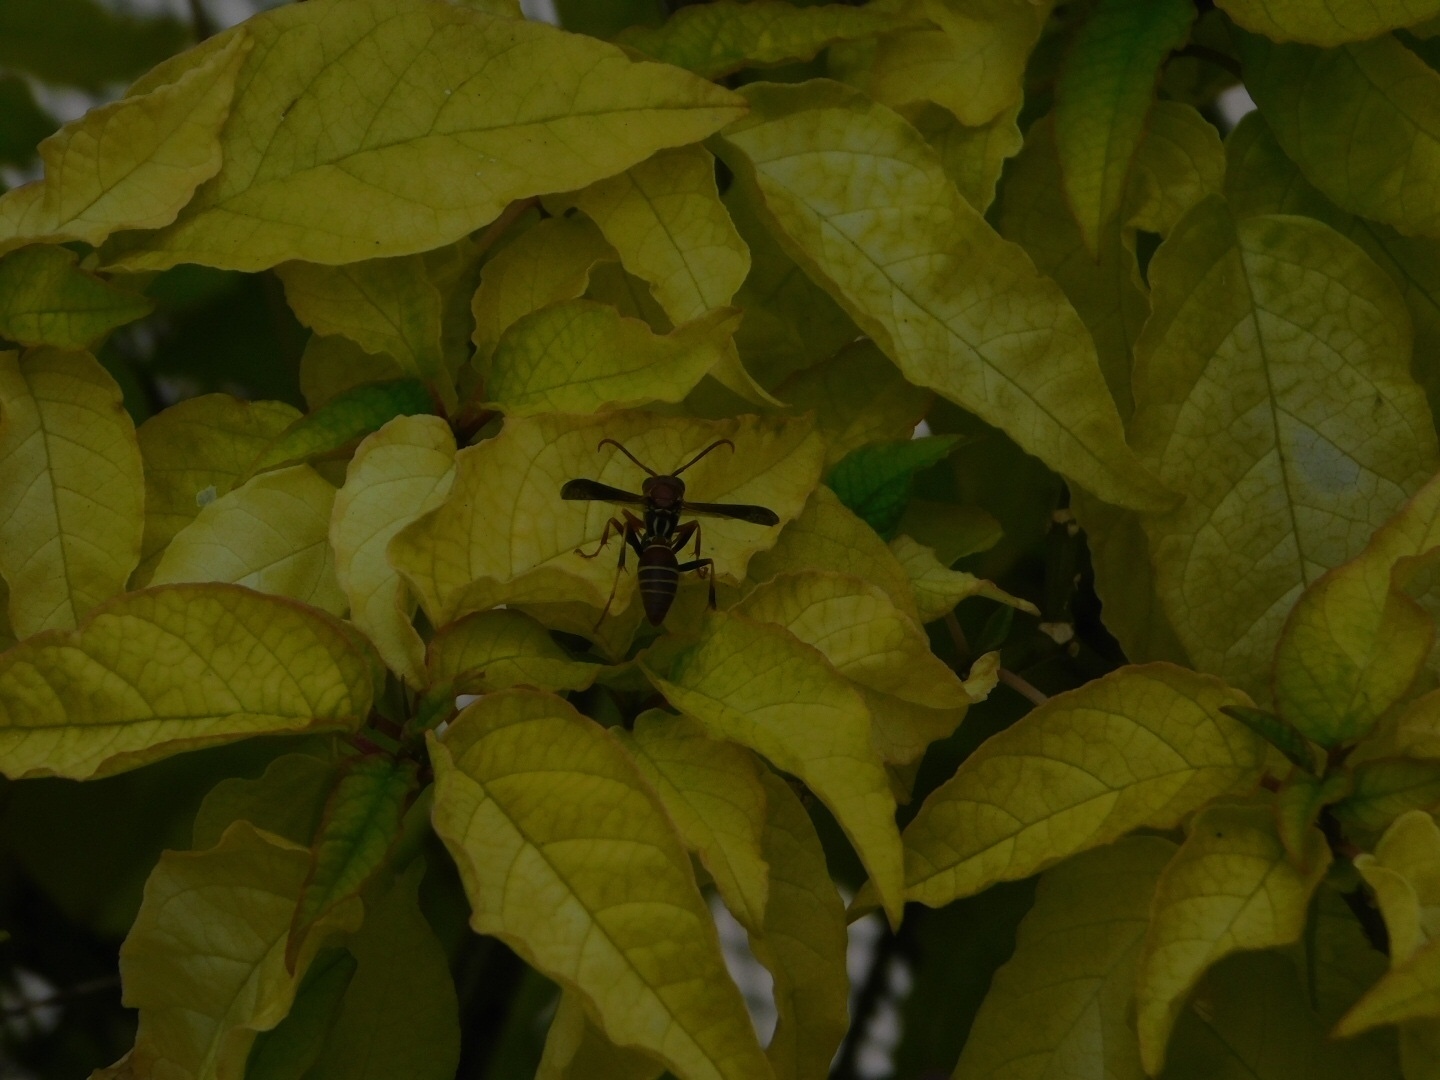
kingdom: Animalia
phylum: Arthropoda
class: Insecta
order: Hymenoptera
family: Eumenidae
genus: Polistes
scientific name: Polistes dorsalis
